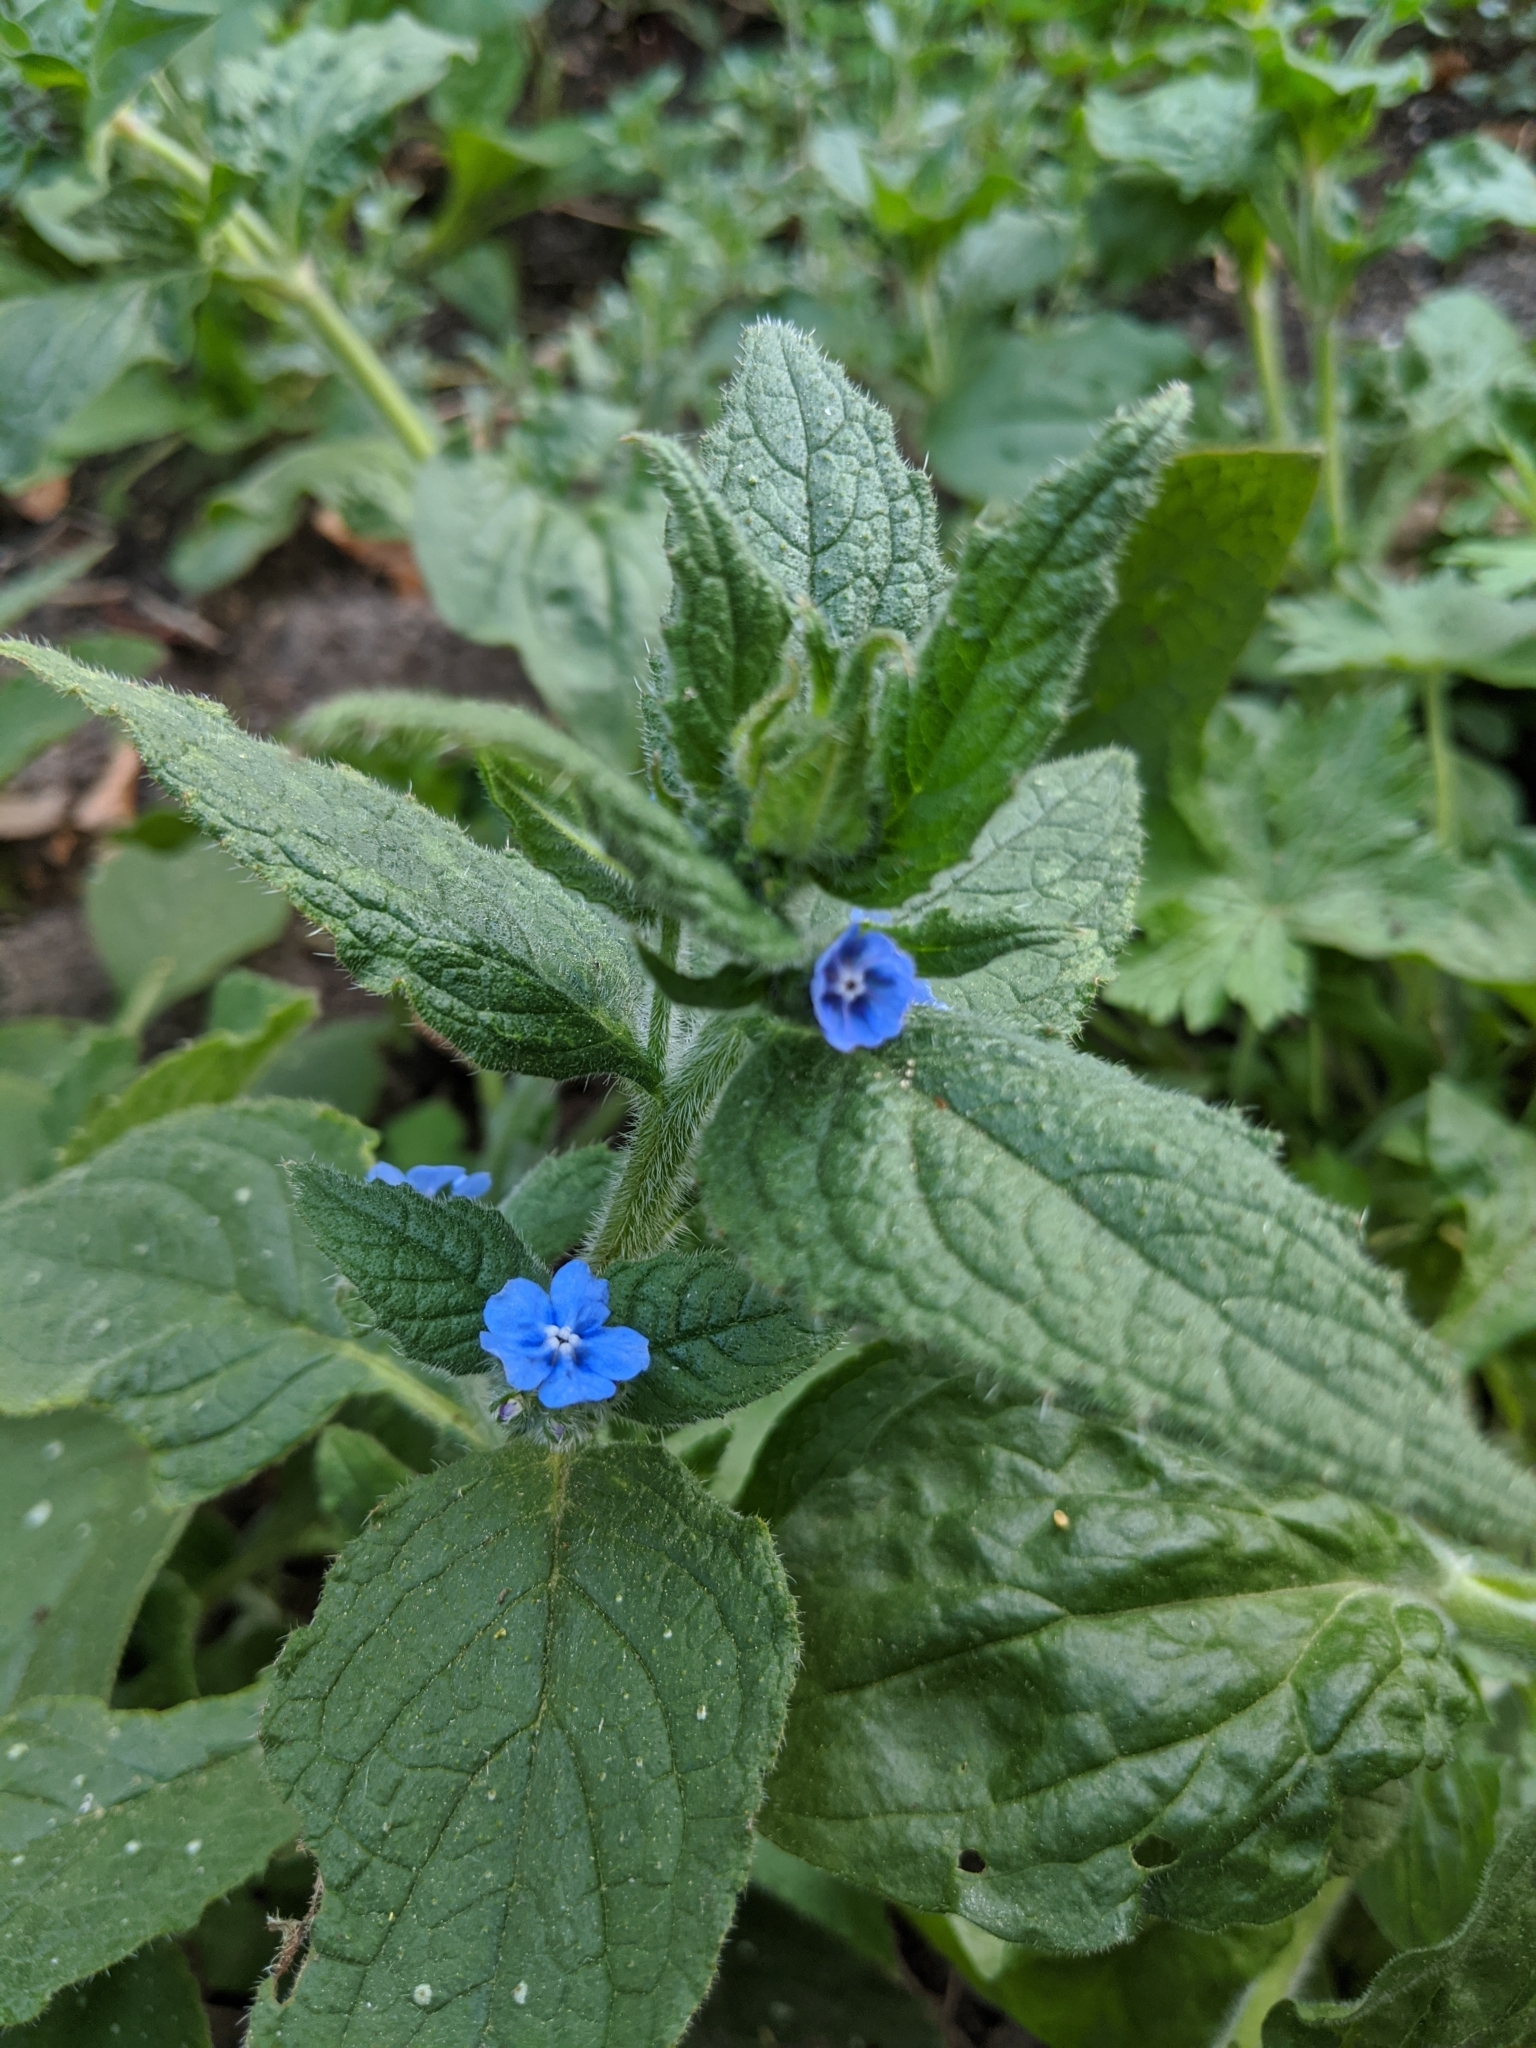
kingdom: Plantae
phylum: Tracheophyta
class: Magnoliopsida
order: Boraginales
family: Boraginaceae
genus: Pentaglottis
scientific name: Pentaglottis sempervirens
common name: Green alkanet
